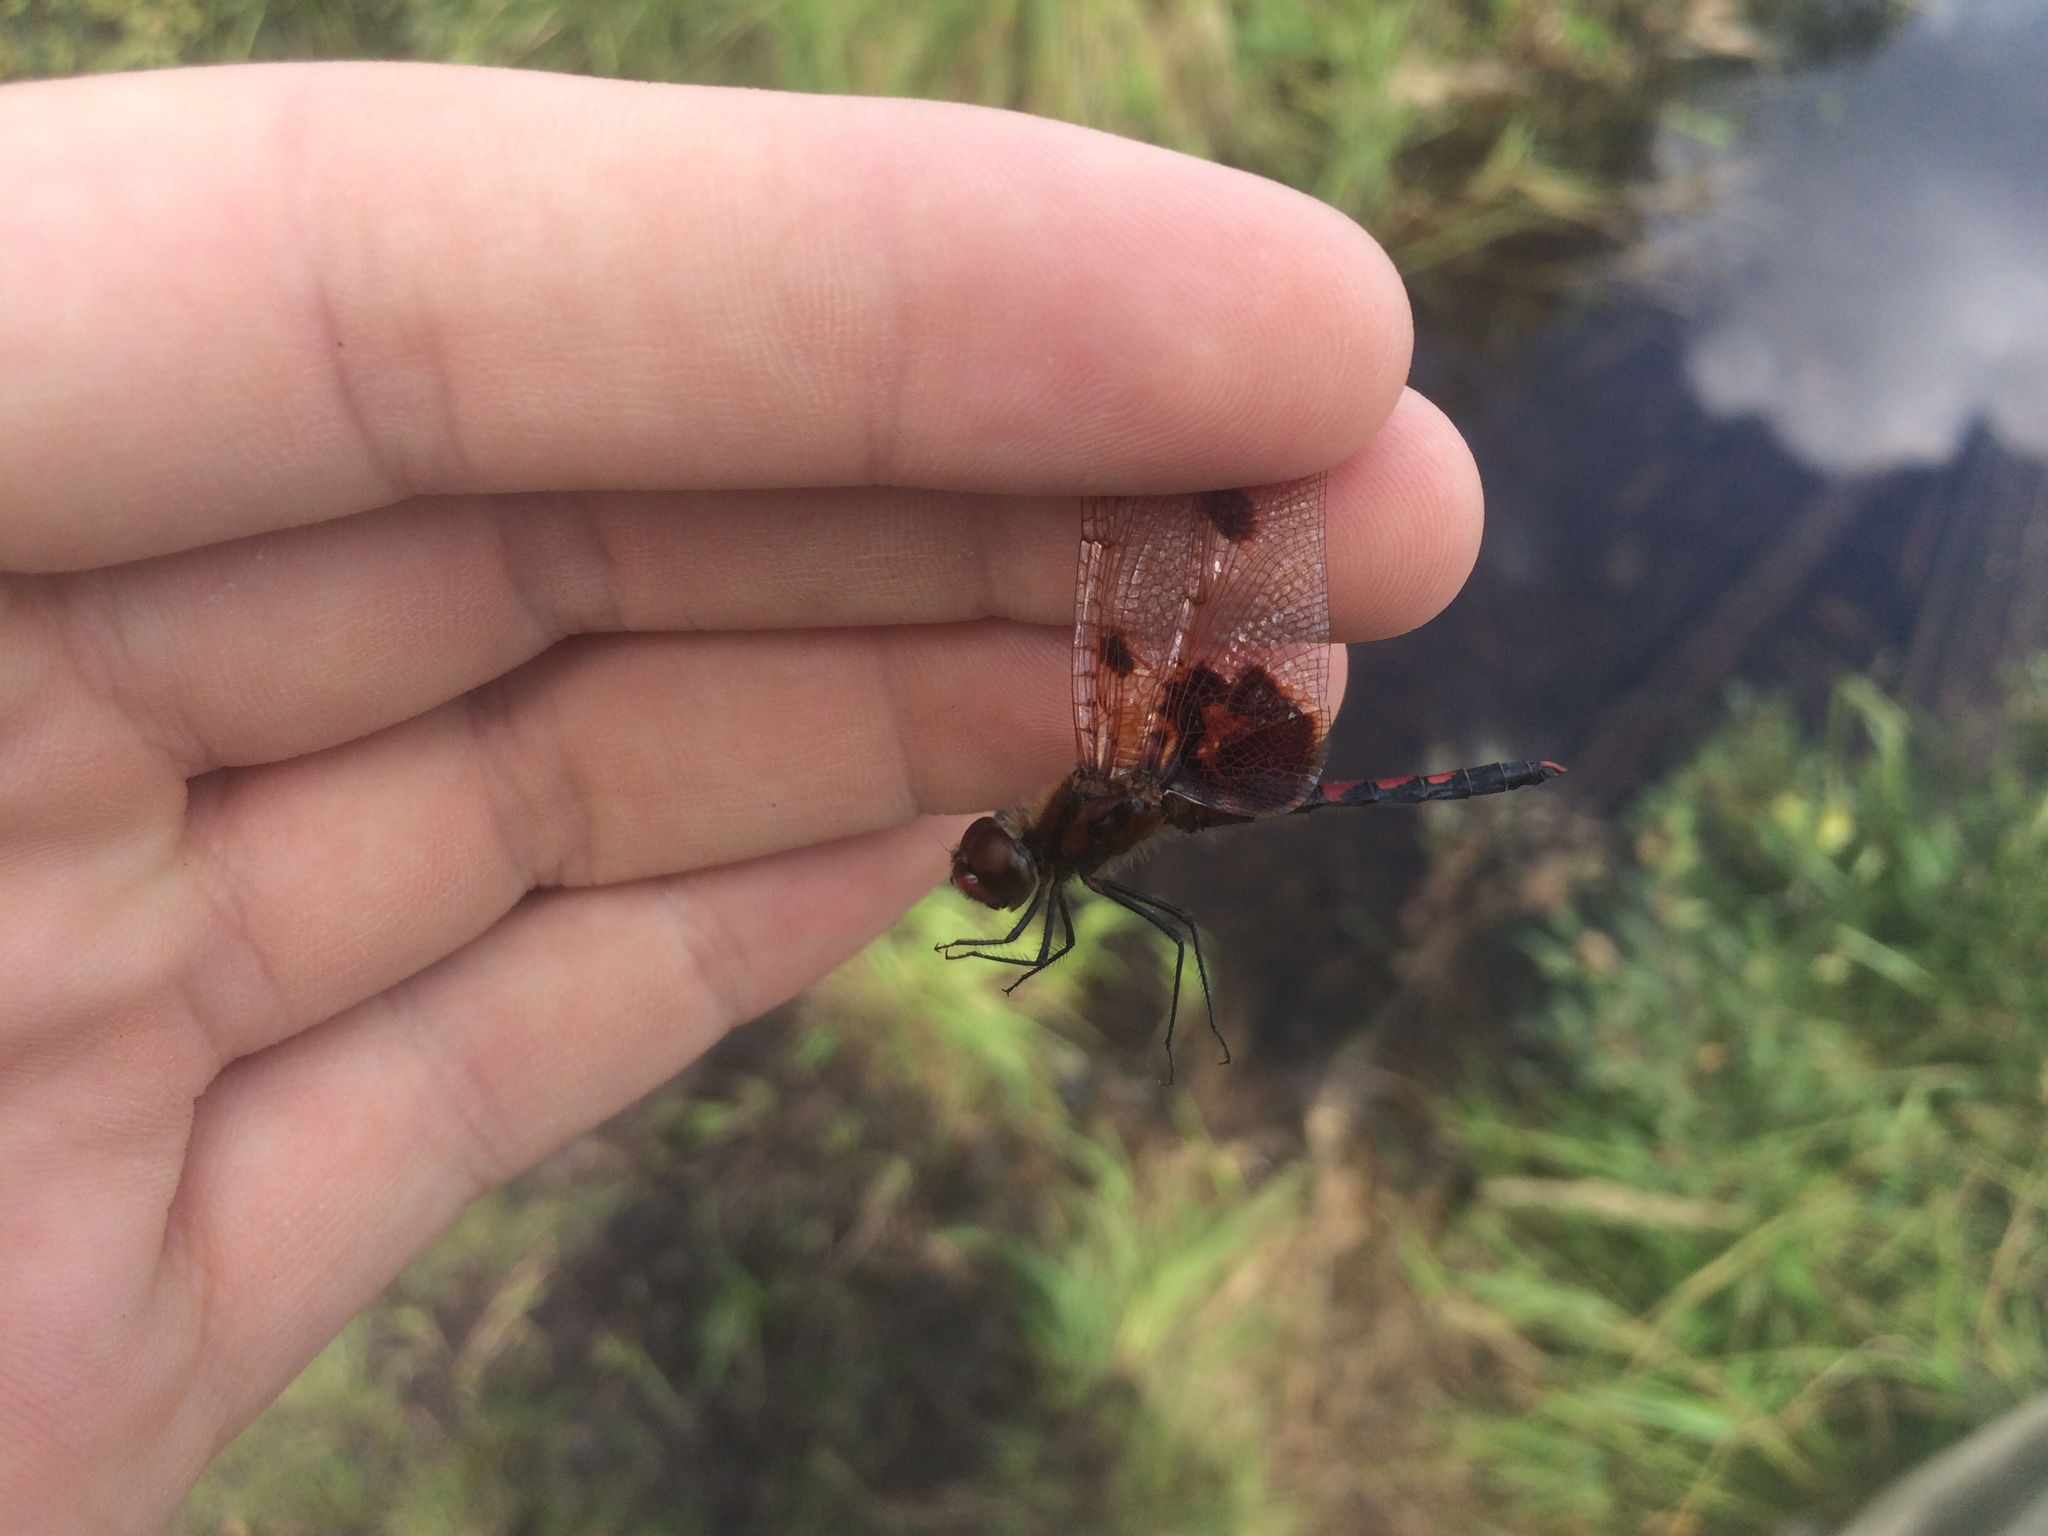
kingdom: Animalia
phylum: Arthropoda
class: Insecta
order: Odonata
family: Libellulidae
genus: Celithemis
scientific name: Celithemis elisa
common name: Calico pennant
